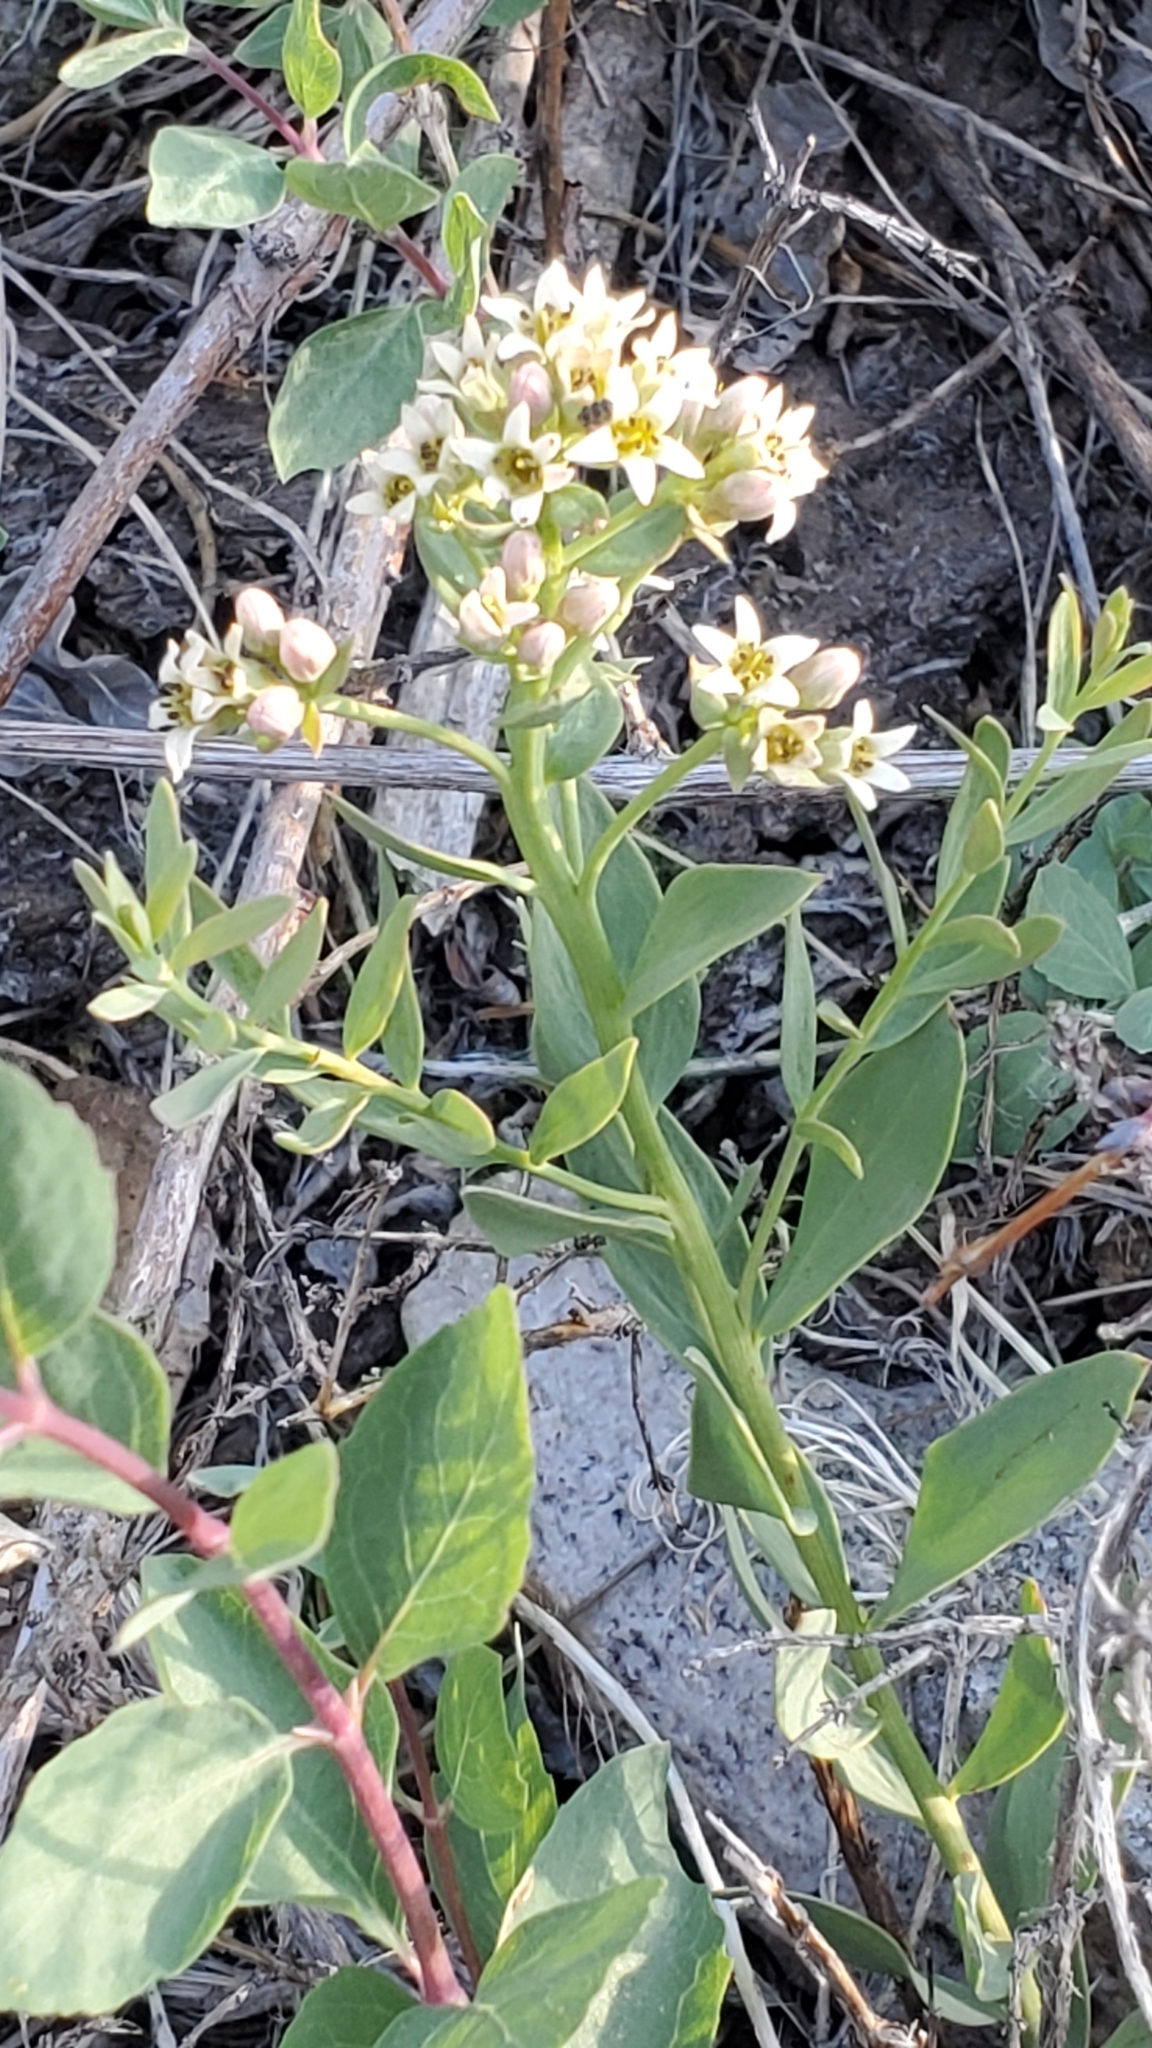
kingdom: Plantae
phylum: Tracheophyta
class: Magnoliopsida
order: Santalales
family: Comandraceae
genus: Comandra
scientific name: Comandra umbellata
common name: Bastard toadflax
